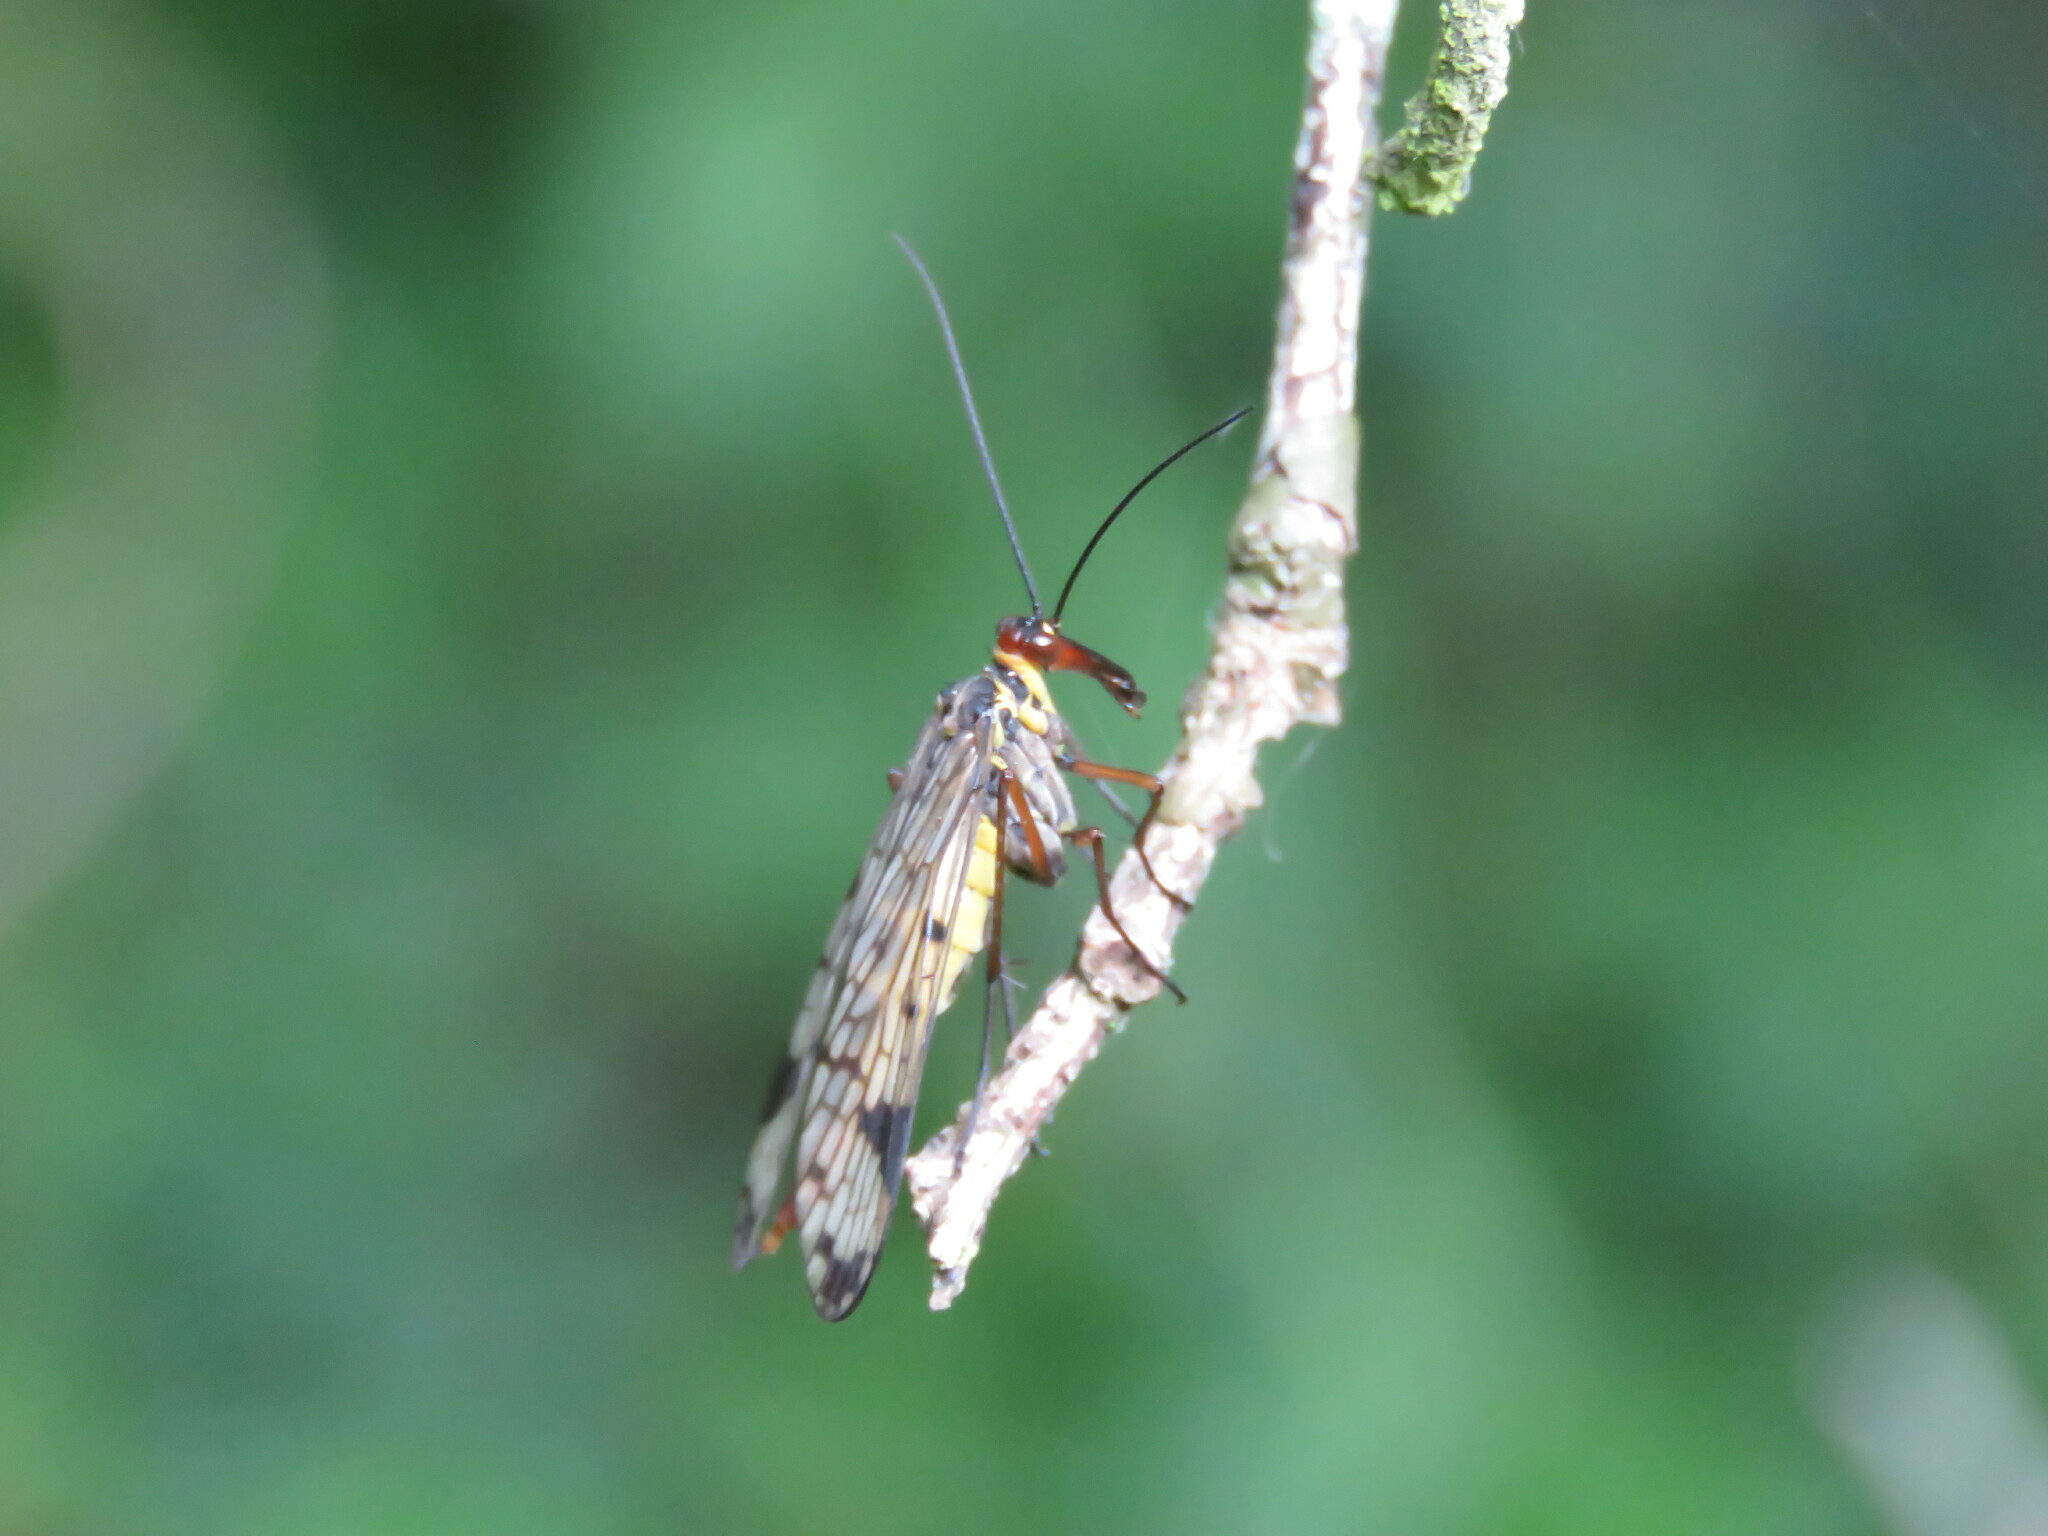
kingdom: Animalia
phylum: Arthropoda
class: Insecta
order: Mecoptera
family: Panorpidae
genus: Panorpa
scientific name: Panorpa meridionalis
